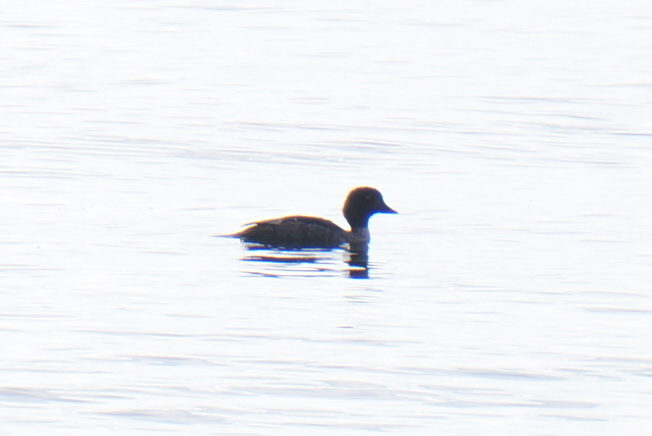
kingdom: Animalia
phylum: Chordata
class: Aves
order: Anseriformes
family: Anatidae
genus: Bucephala
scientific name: Bucephala clangula
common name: Common goldeneye
